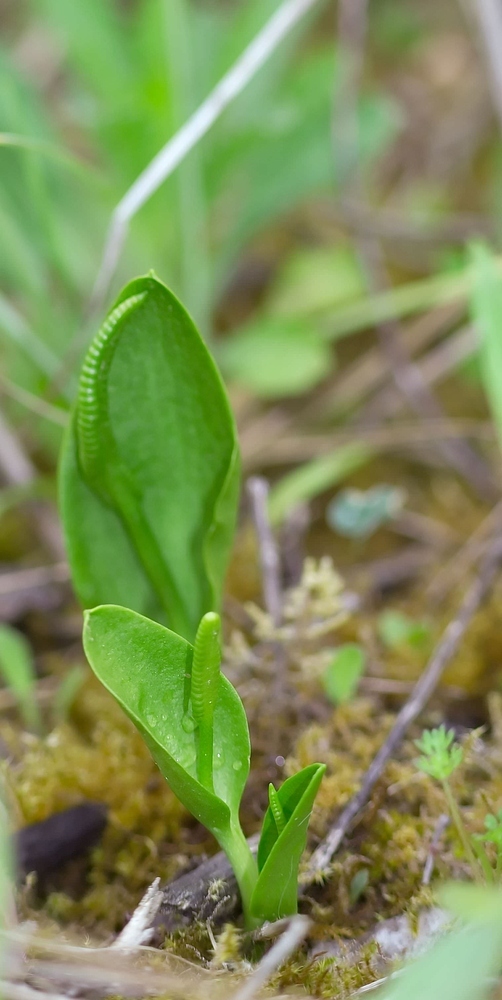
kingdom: Plantae
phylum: Tracheophyta
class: Polypodiopsida
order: Ophioglossales
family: Ophioglossaceae
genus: Ophioglossum
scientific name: Ophioglossum vulgatum
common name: Adder's-tongue
